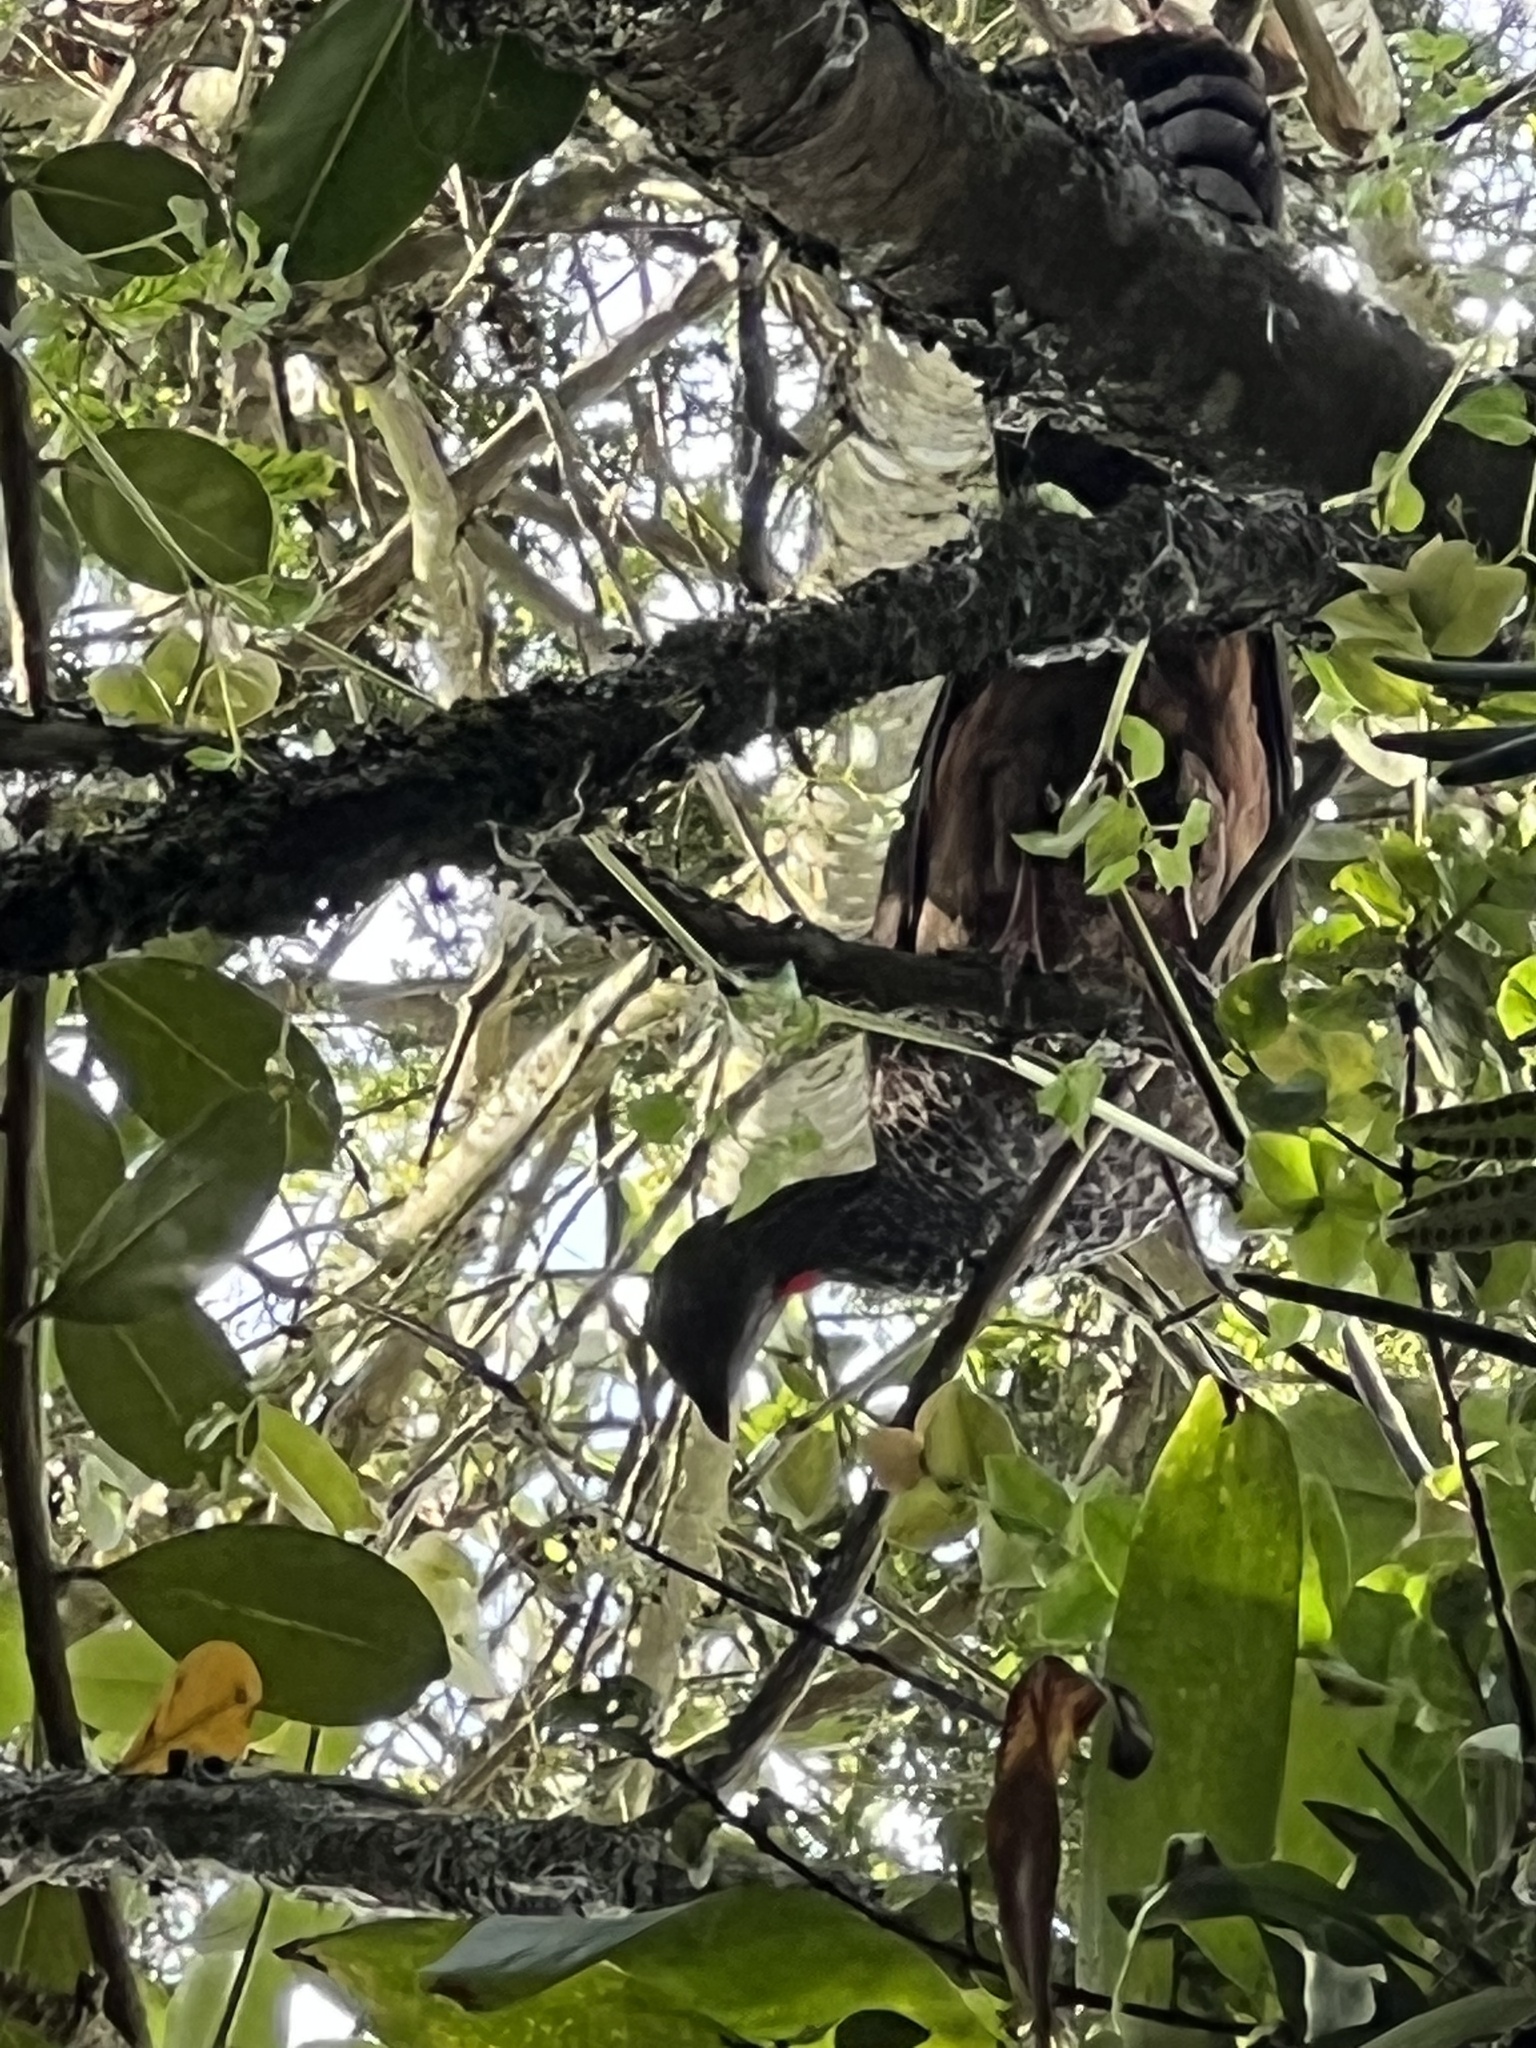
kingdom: Animalia
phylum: Chordata
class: Aves
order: Galliformes
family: Cracidae
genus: Penelope
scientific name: Penelope montagnii
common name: Andean guan
